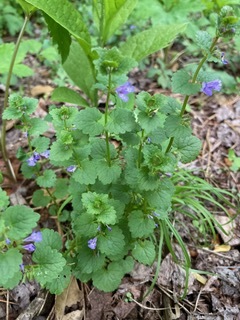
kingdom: Plantae
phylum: Tracheophyta
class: Magnoliopsida
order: Lamiales
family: Lamiaceae
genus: Glechoma
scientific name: Glechoma hederacea
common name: Ground ivy
